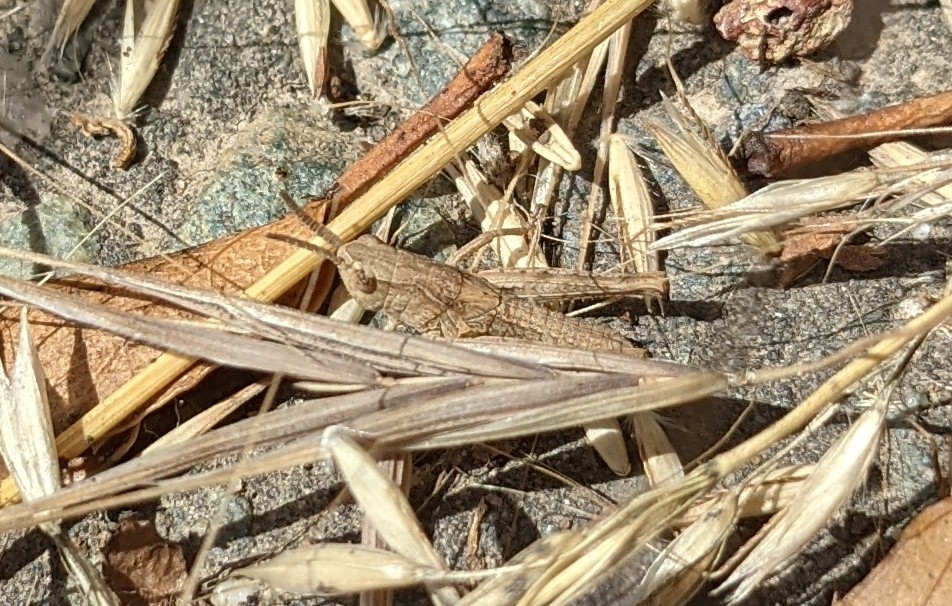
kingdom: Animalia
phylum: Arthropoda
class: Insecta
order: Orthoptera
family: Acrididae
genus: Chorthippus
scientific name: Chorthippus brunneus
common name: Field grasshopper
